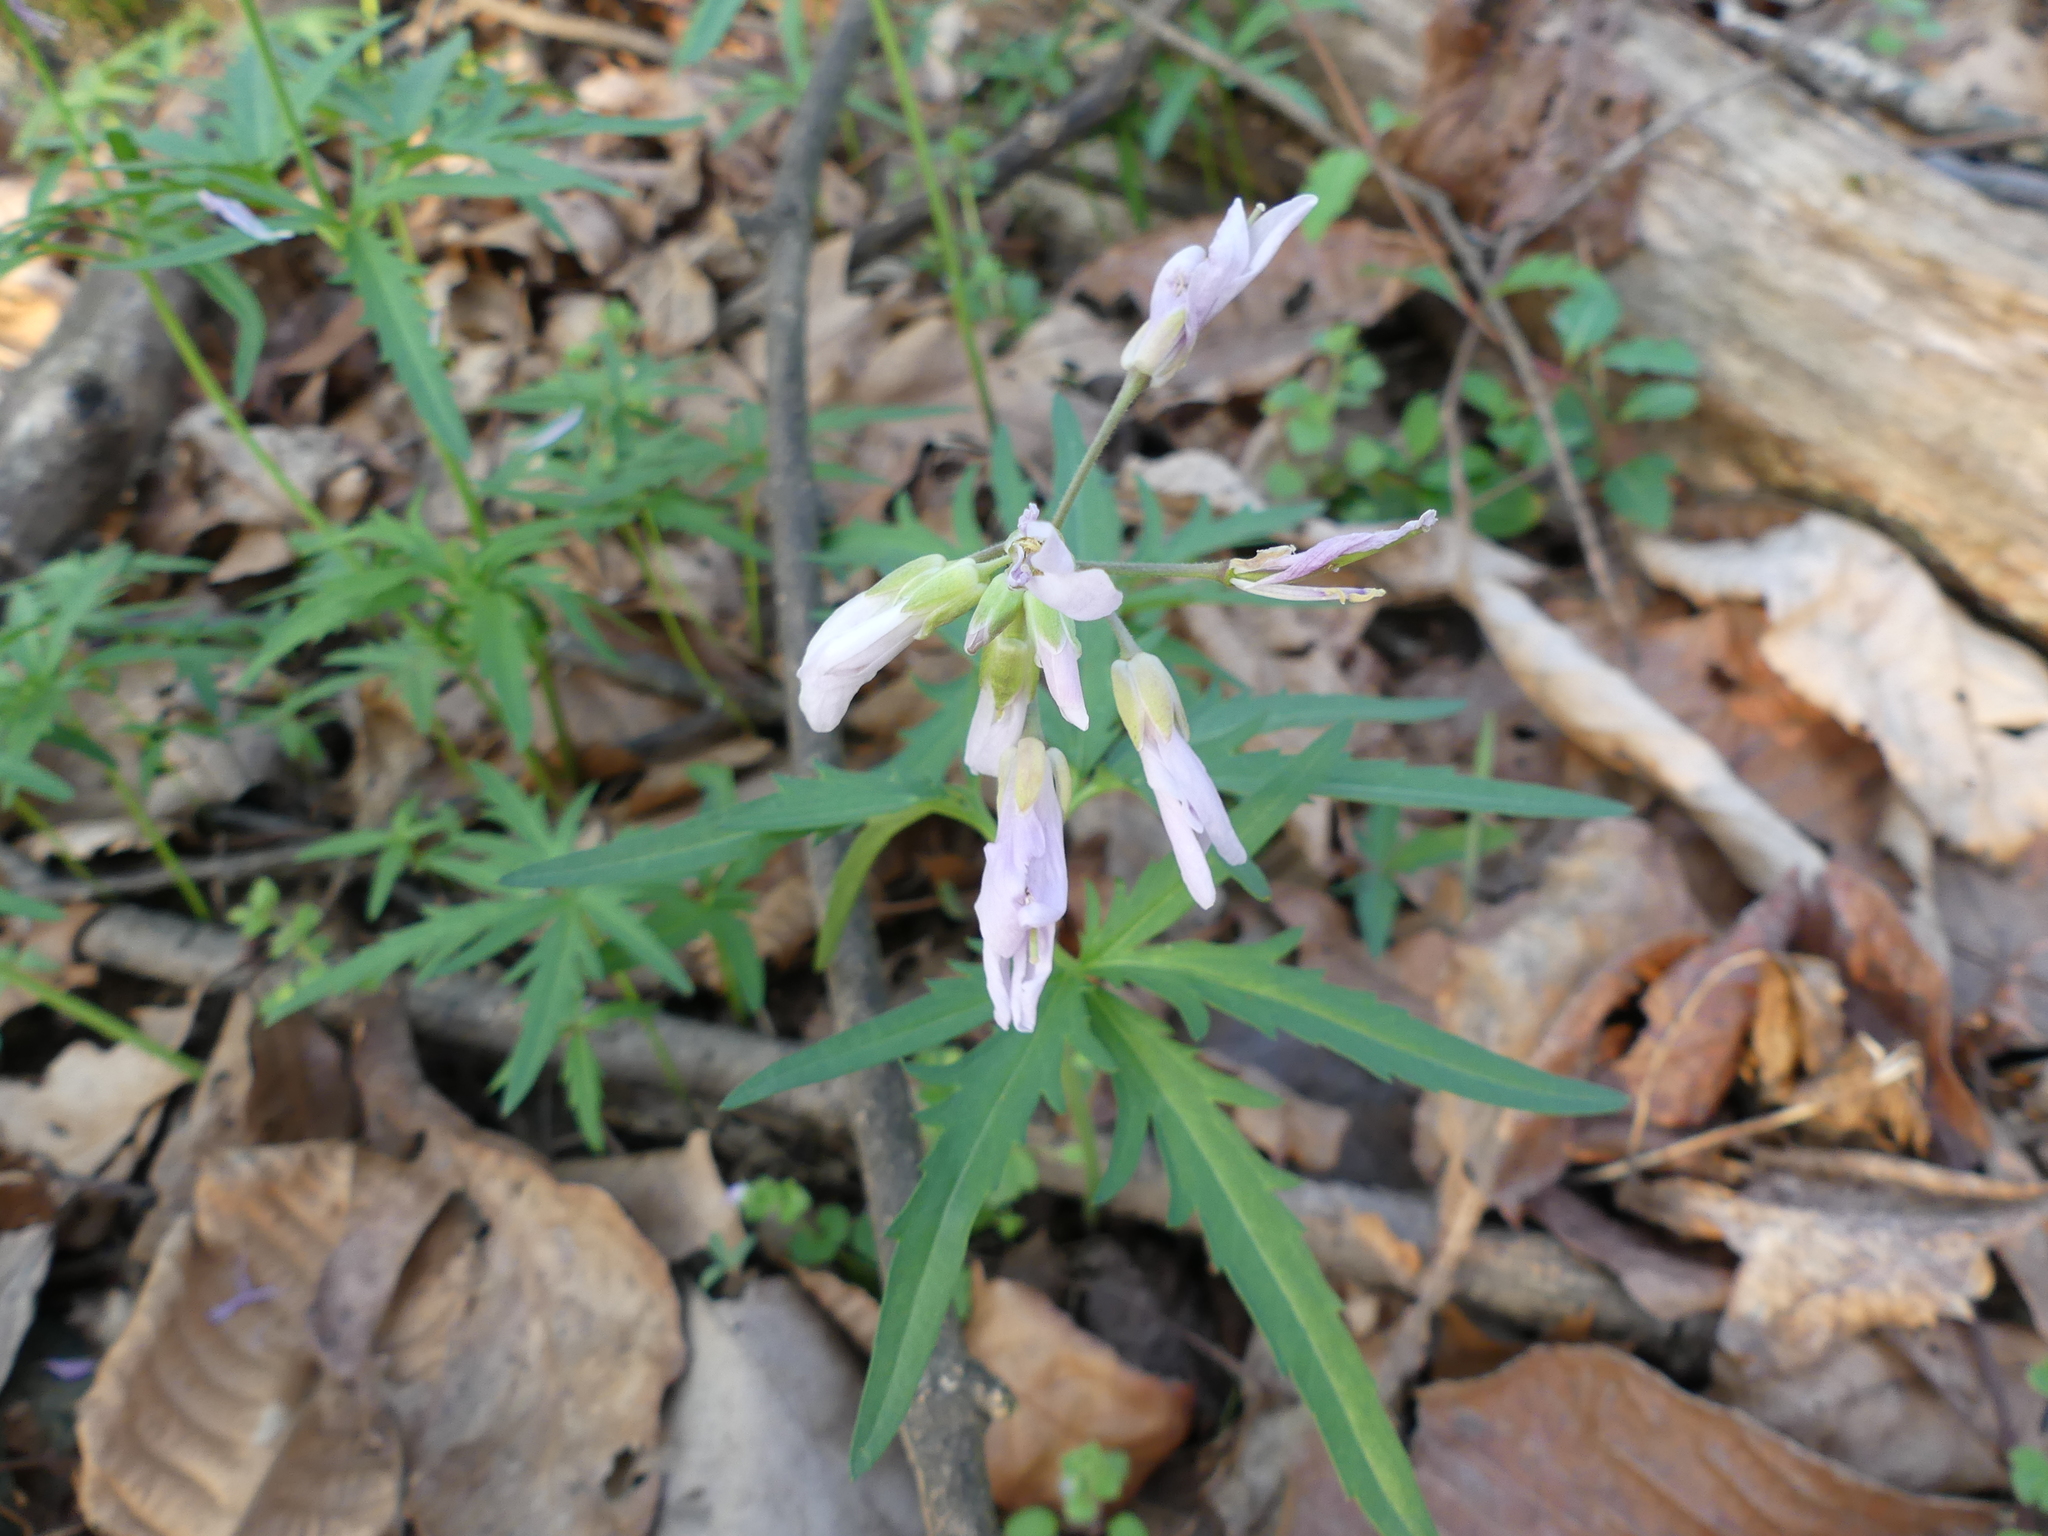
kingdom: Plantae
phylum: Tracheophyta
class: Magnoliopsida
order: Brassicales
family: Brassicaceae
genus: Cardamine
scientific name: Cardamine concatenata
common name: Cut-leaf toothcup
